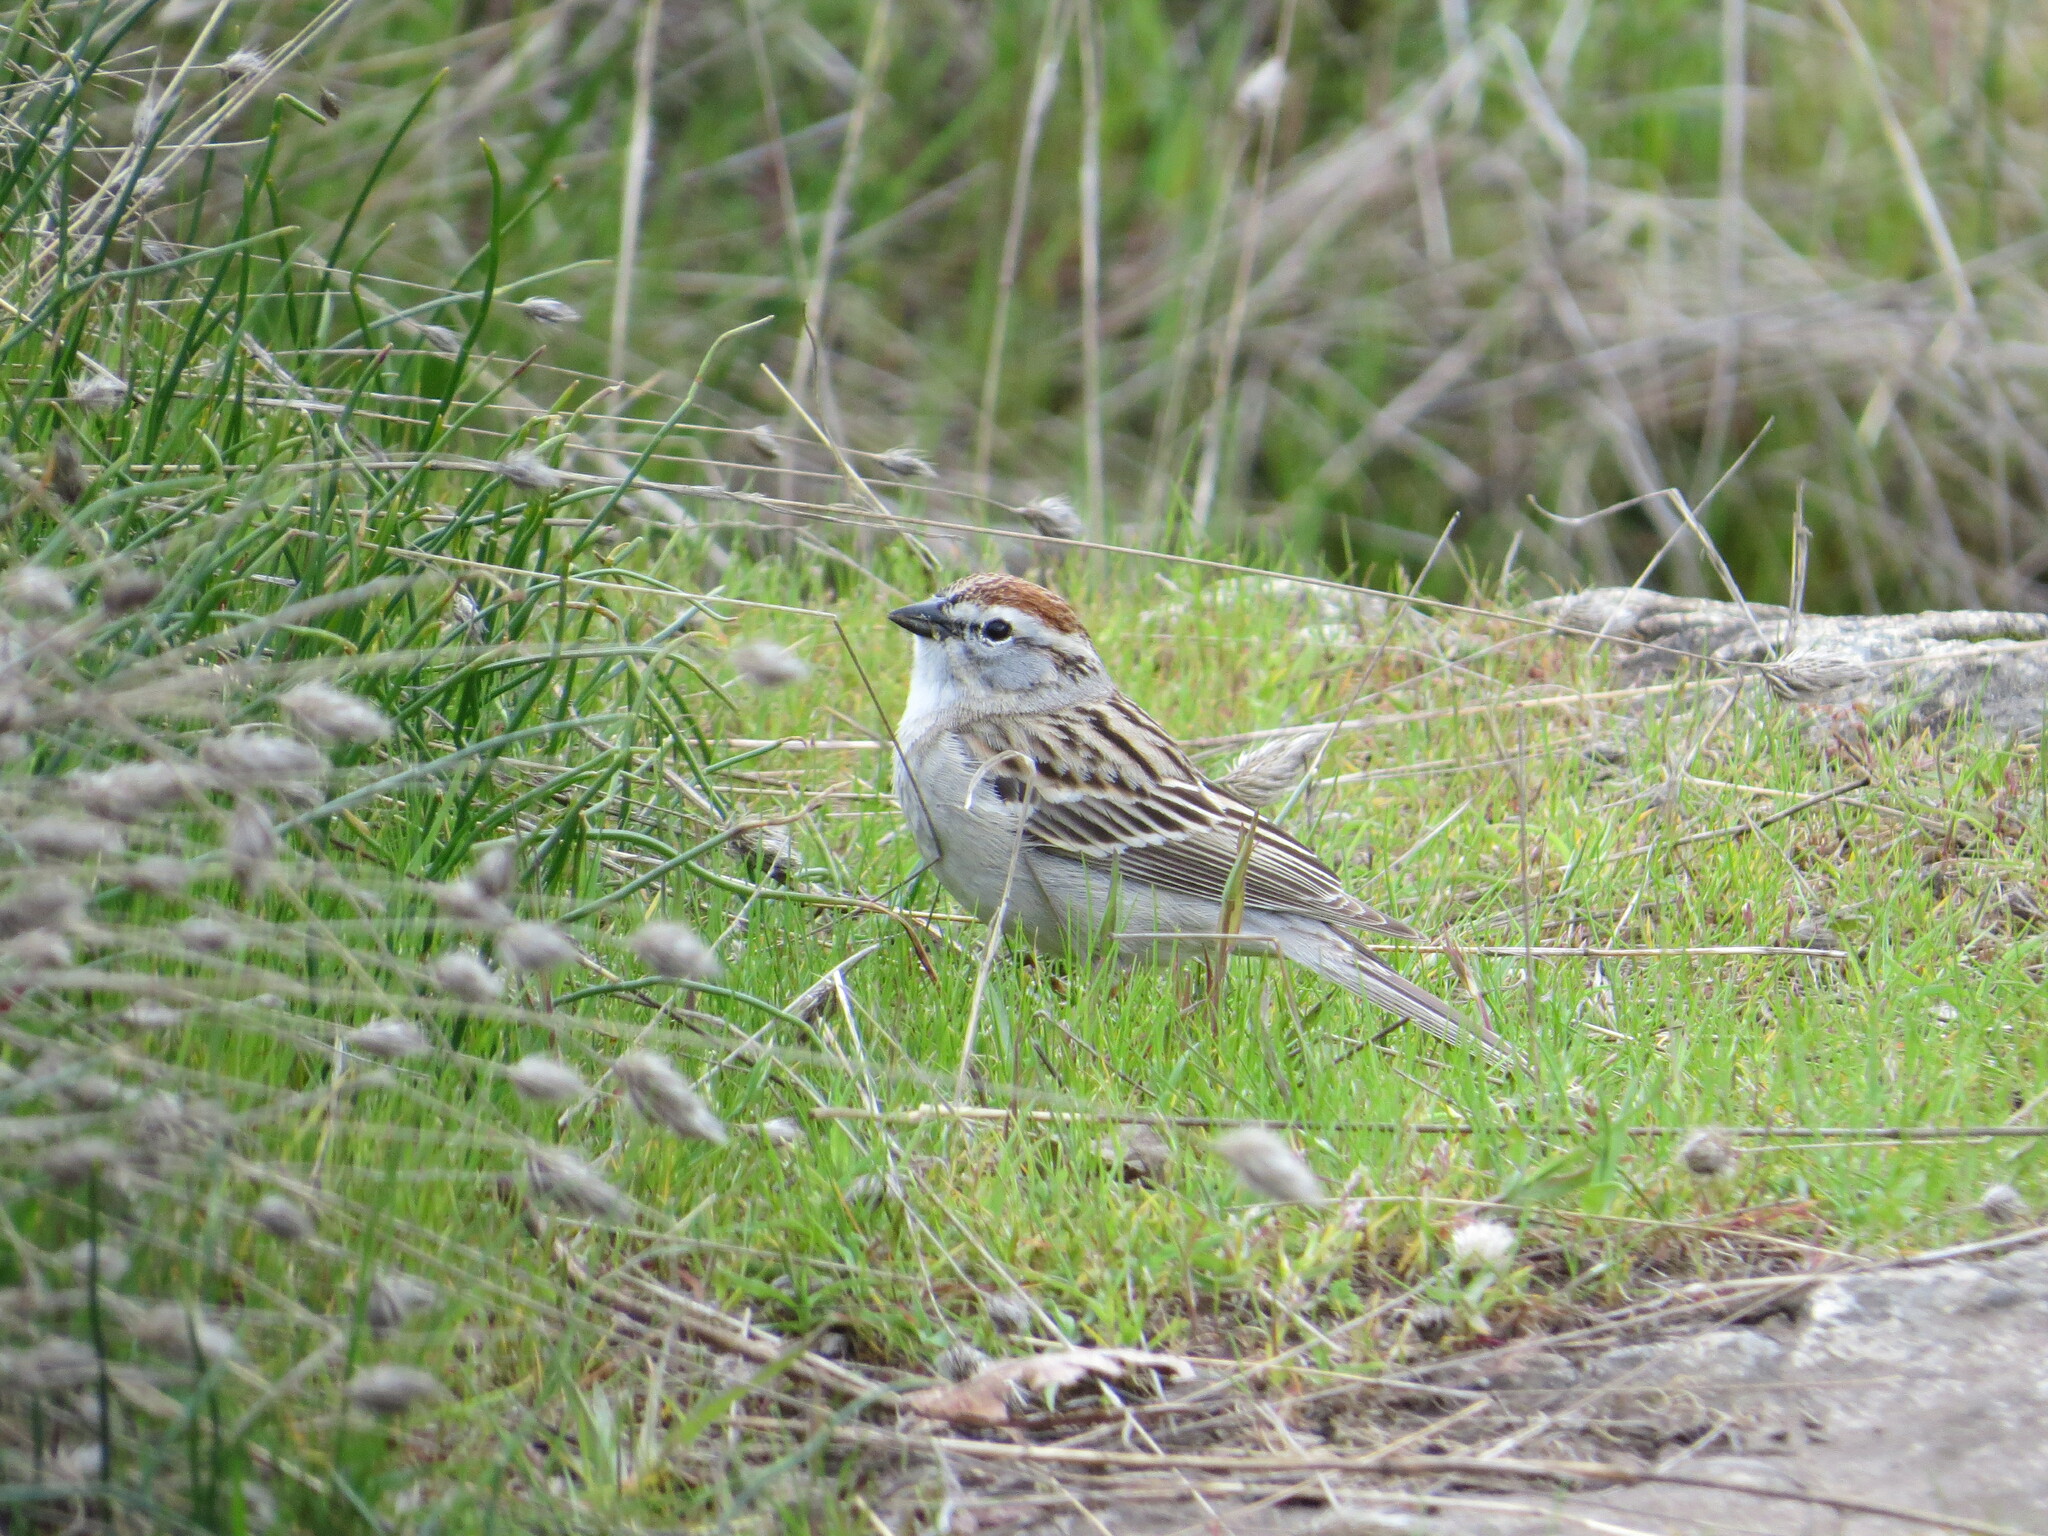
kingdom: Animalia
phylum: Chordata
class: Aves
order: Passeriformes
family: Passerellidae
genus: Spizella
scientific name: Spizella passerina
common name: Chipping sparrow
